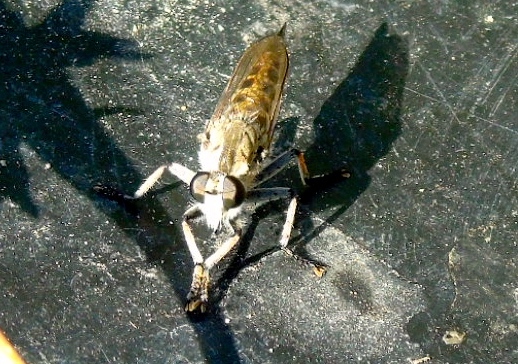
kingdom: Animalia
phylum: Arthropoda
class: Insecta
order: Diptera
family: Asilidae
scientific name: Asilidae
